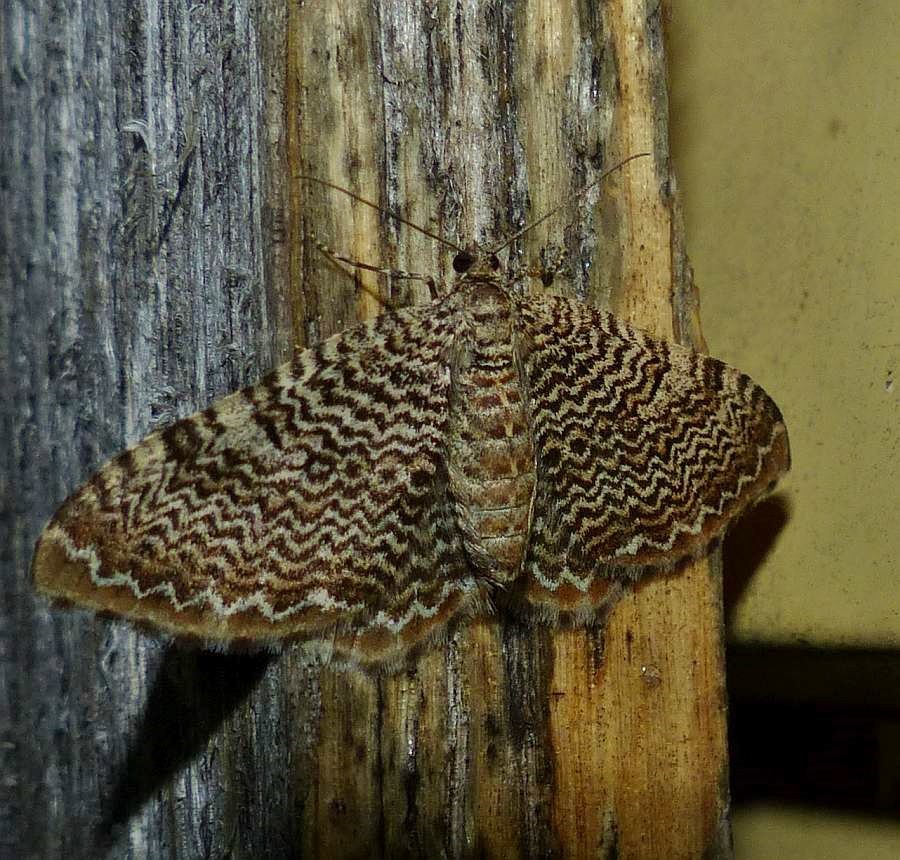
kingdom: Animalia
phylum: Arthropoda
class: Insecta
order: Lepidoptera
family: Geometridae
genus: Rheumaptera
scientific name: Rheumaptera prunivorata
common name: Cherry scallop shell moth
